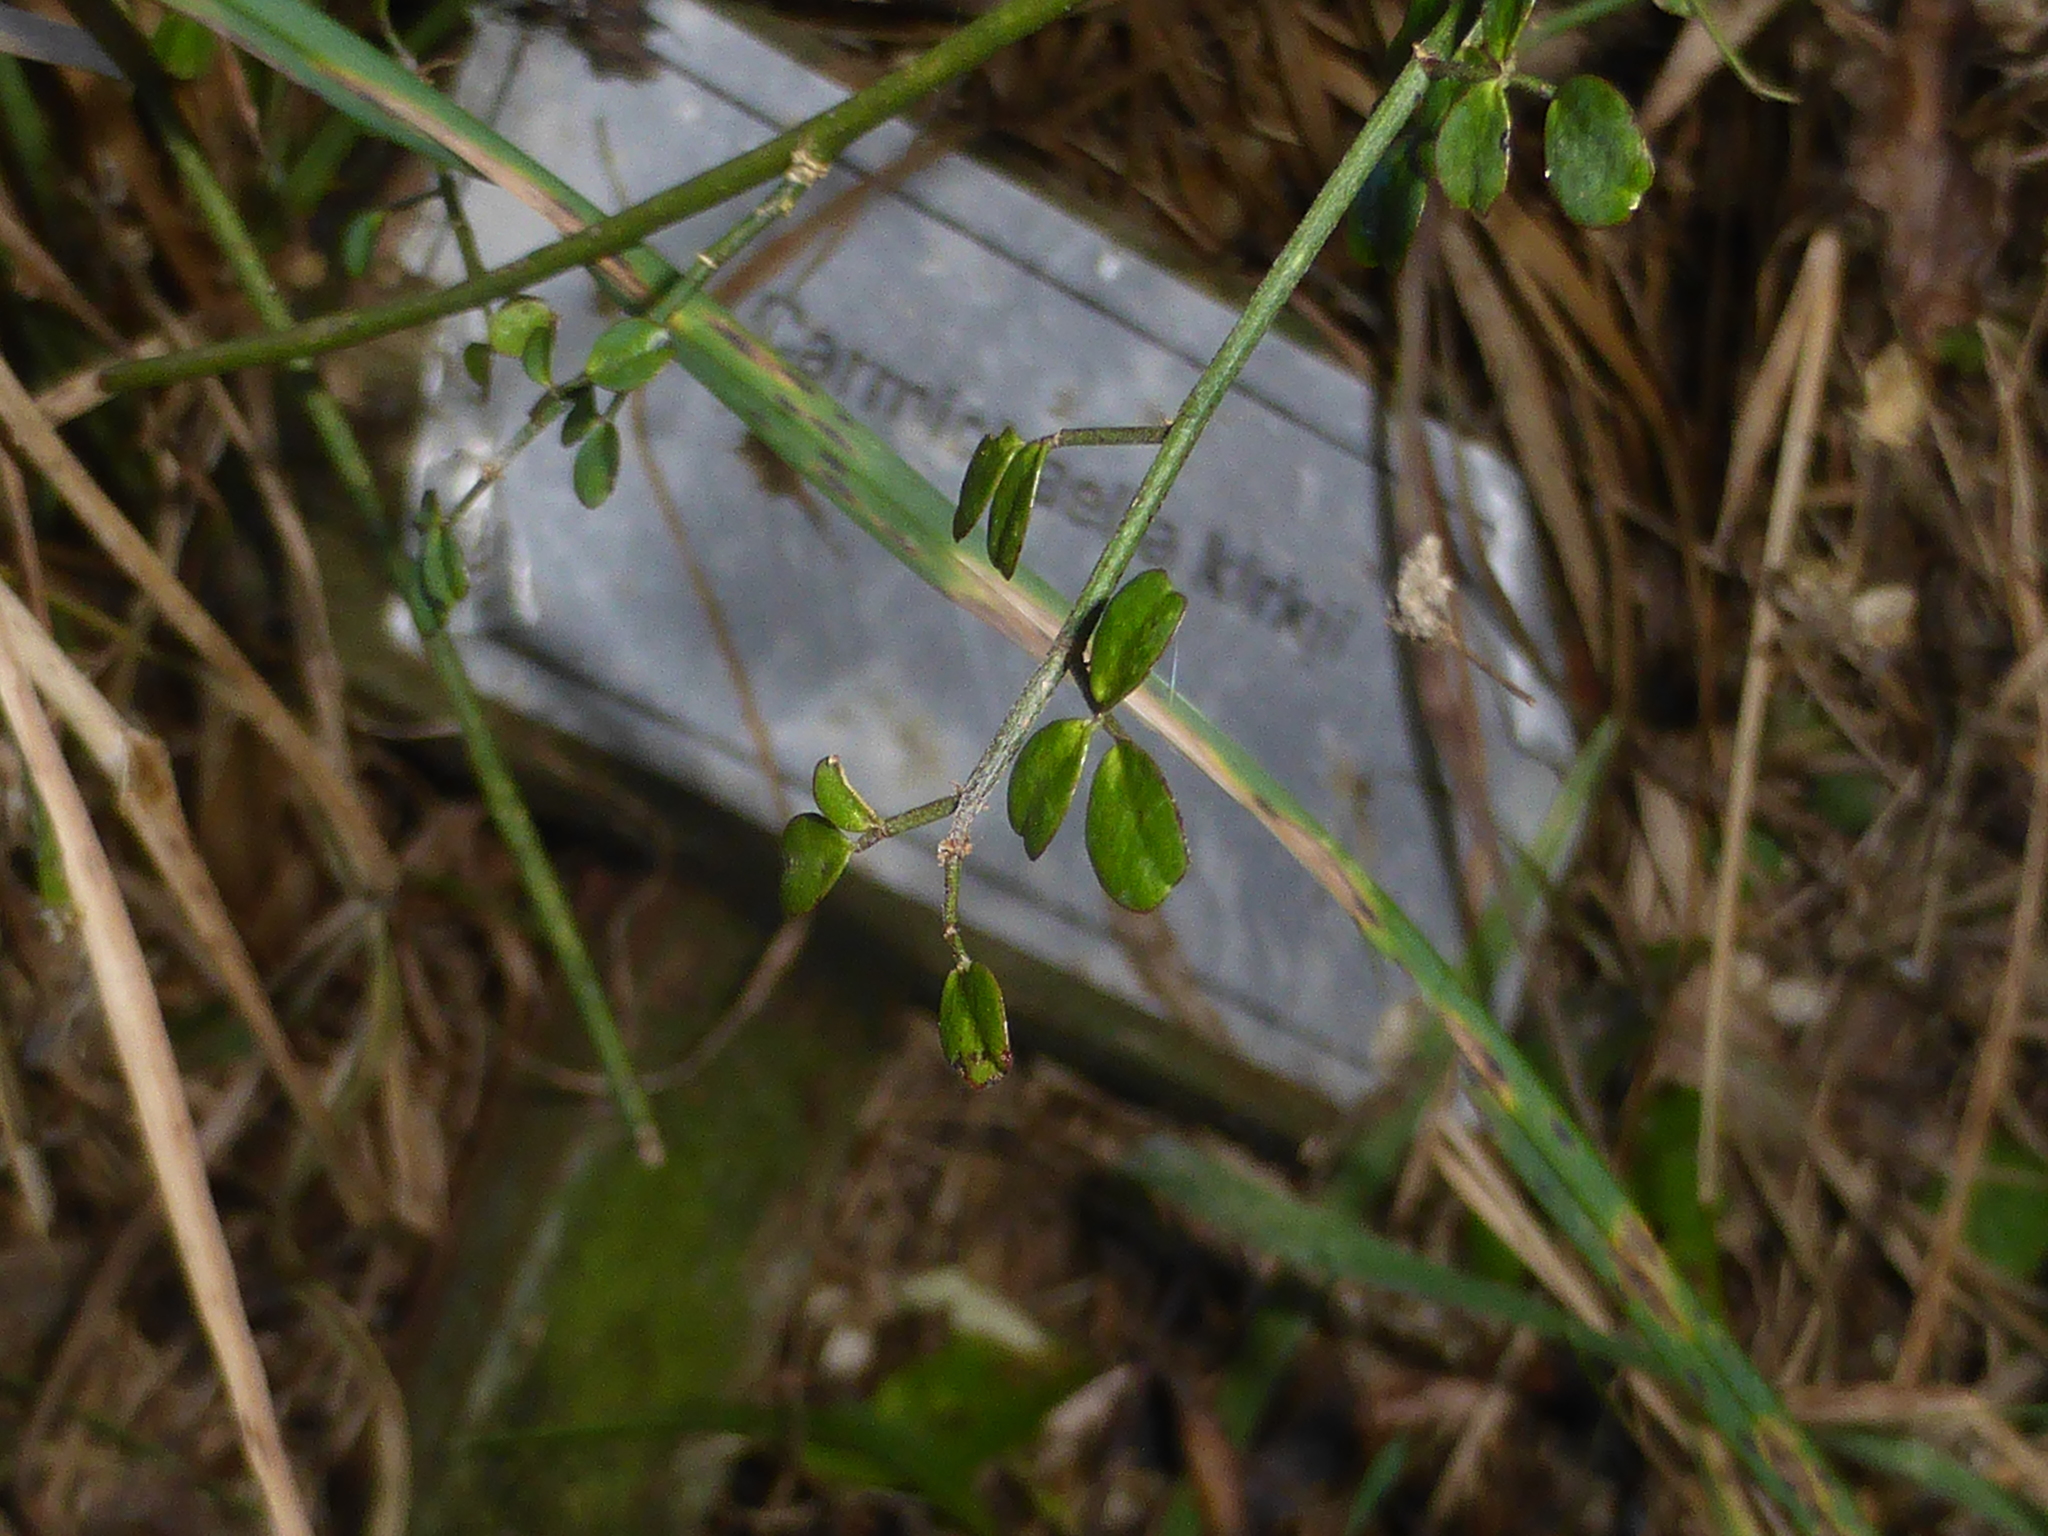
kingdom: Plantae
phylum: Tracheophyta
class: Magnoliopsida
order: Fabales
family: Fabaceae
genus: Carmichaelia
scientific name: Carmichaelia kirkii
